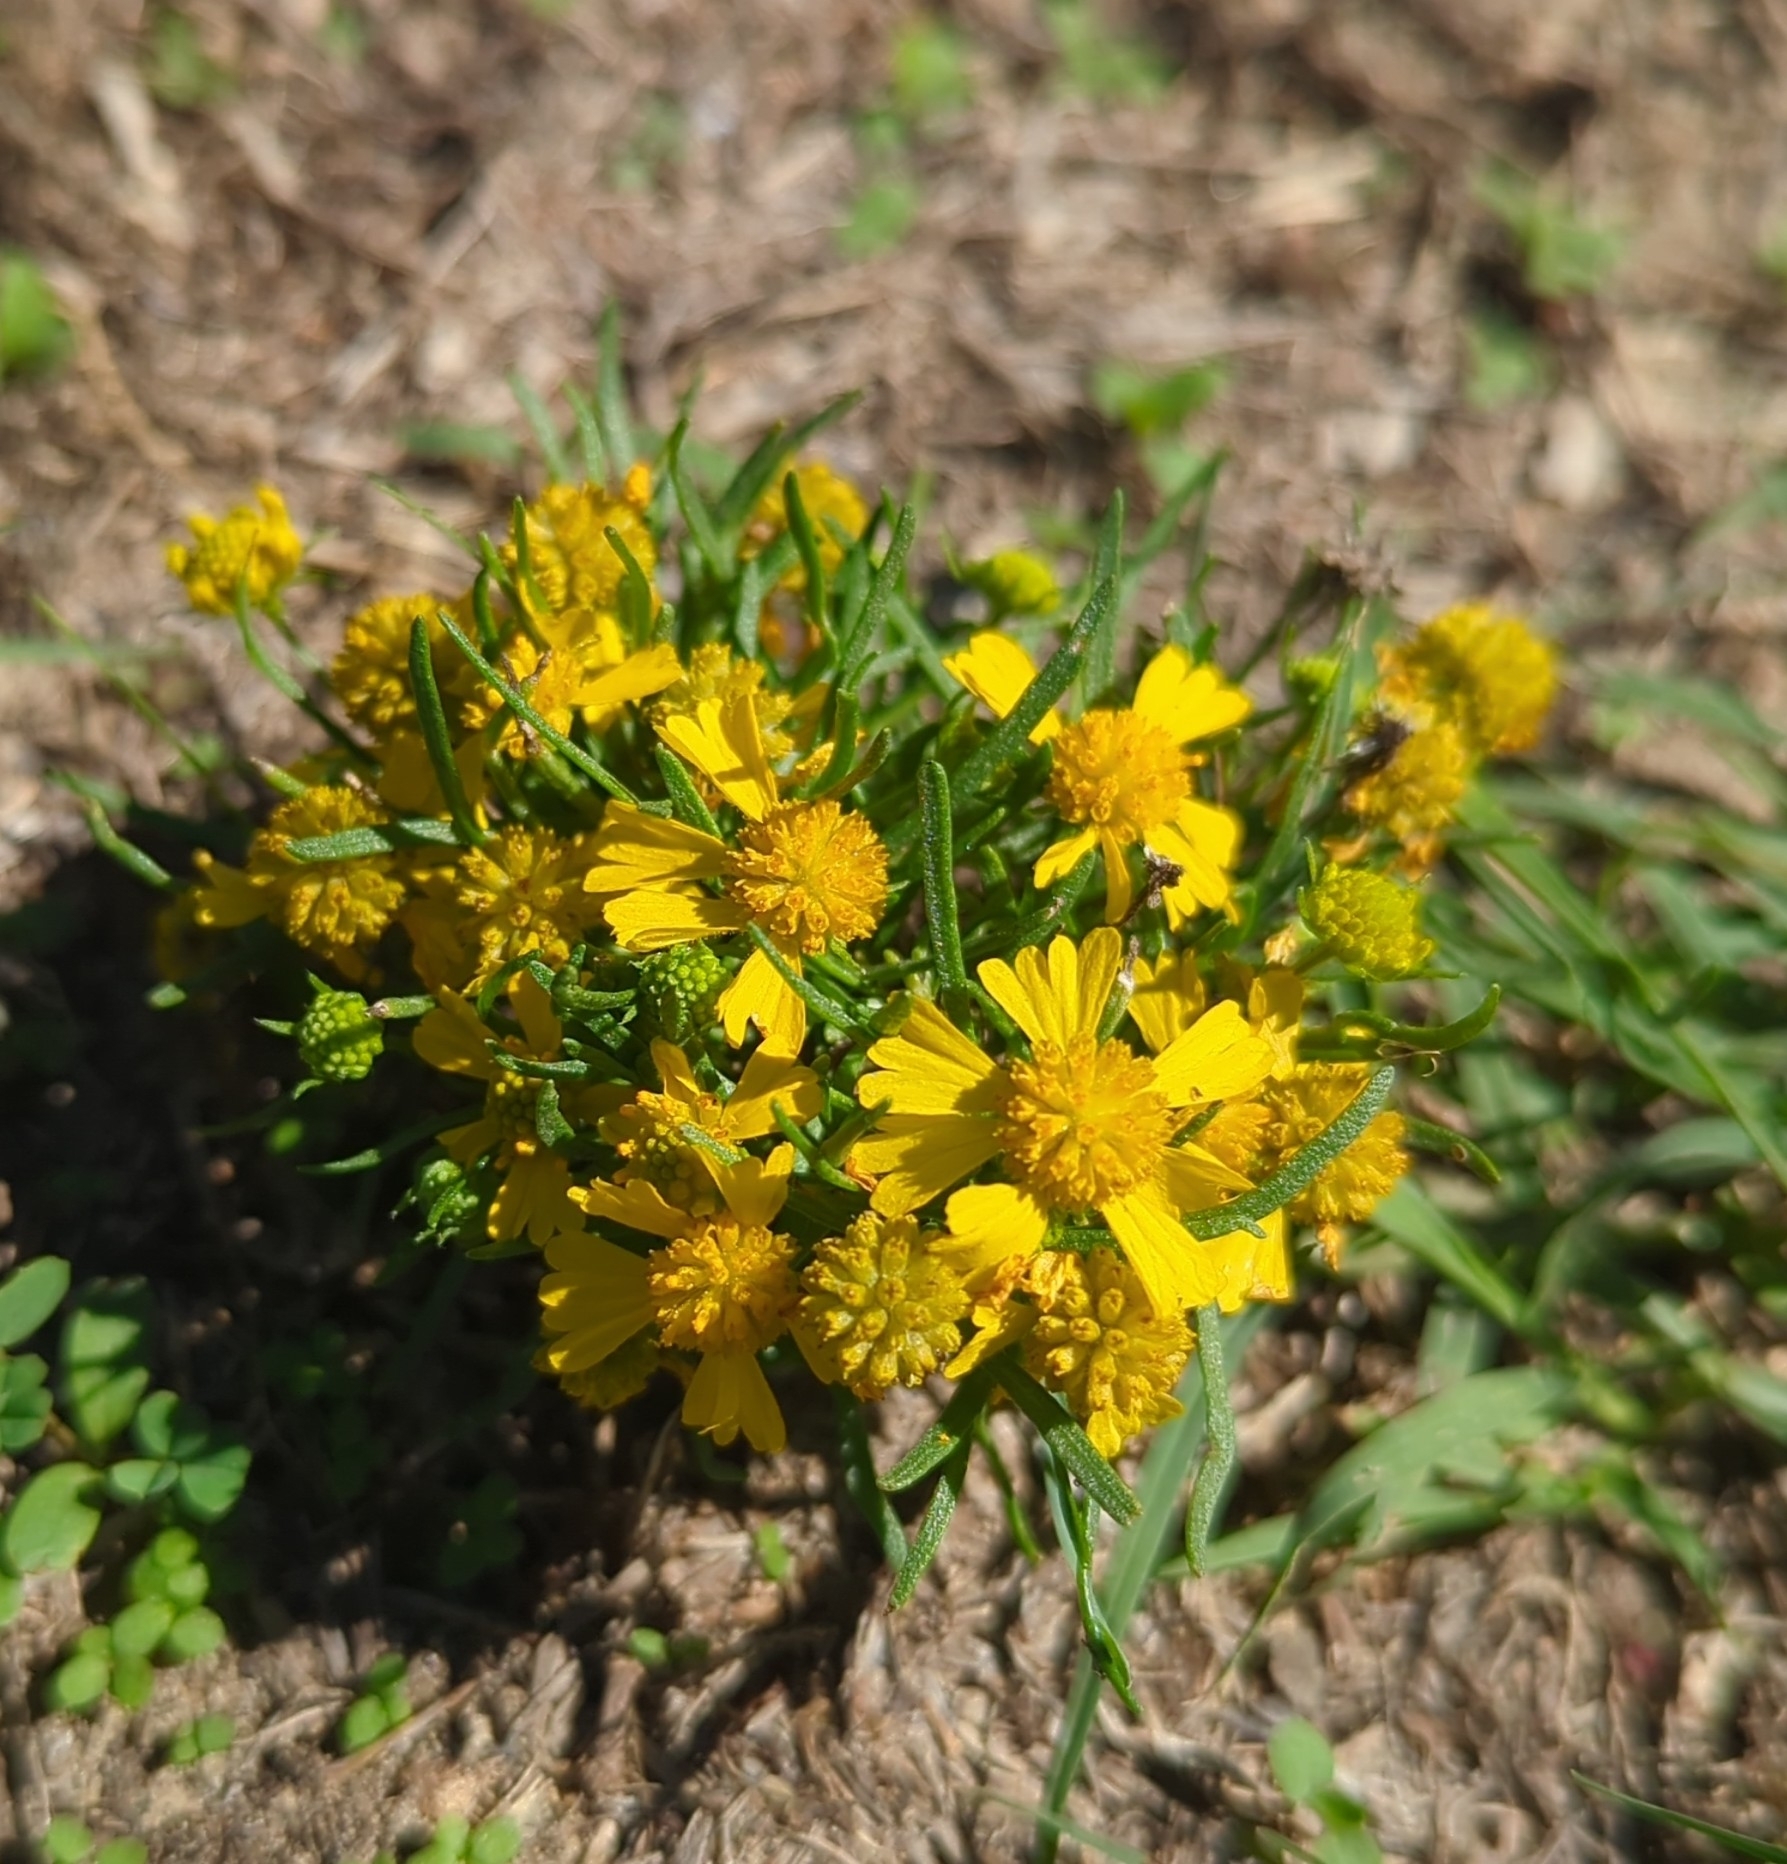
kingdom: Plantae
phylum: Tracheophyta
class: Magnoliopsida
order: Asterales
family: Asteraceae
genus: Helenium
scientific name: Helenium amarum
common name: Bitter sneezeweed
